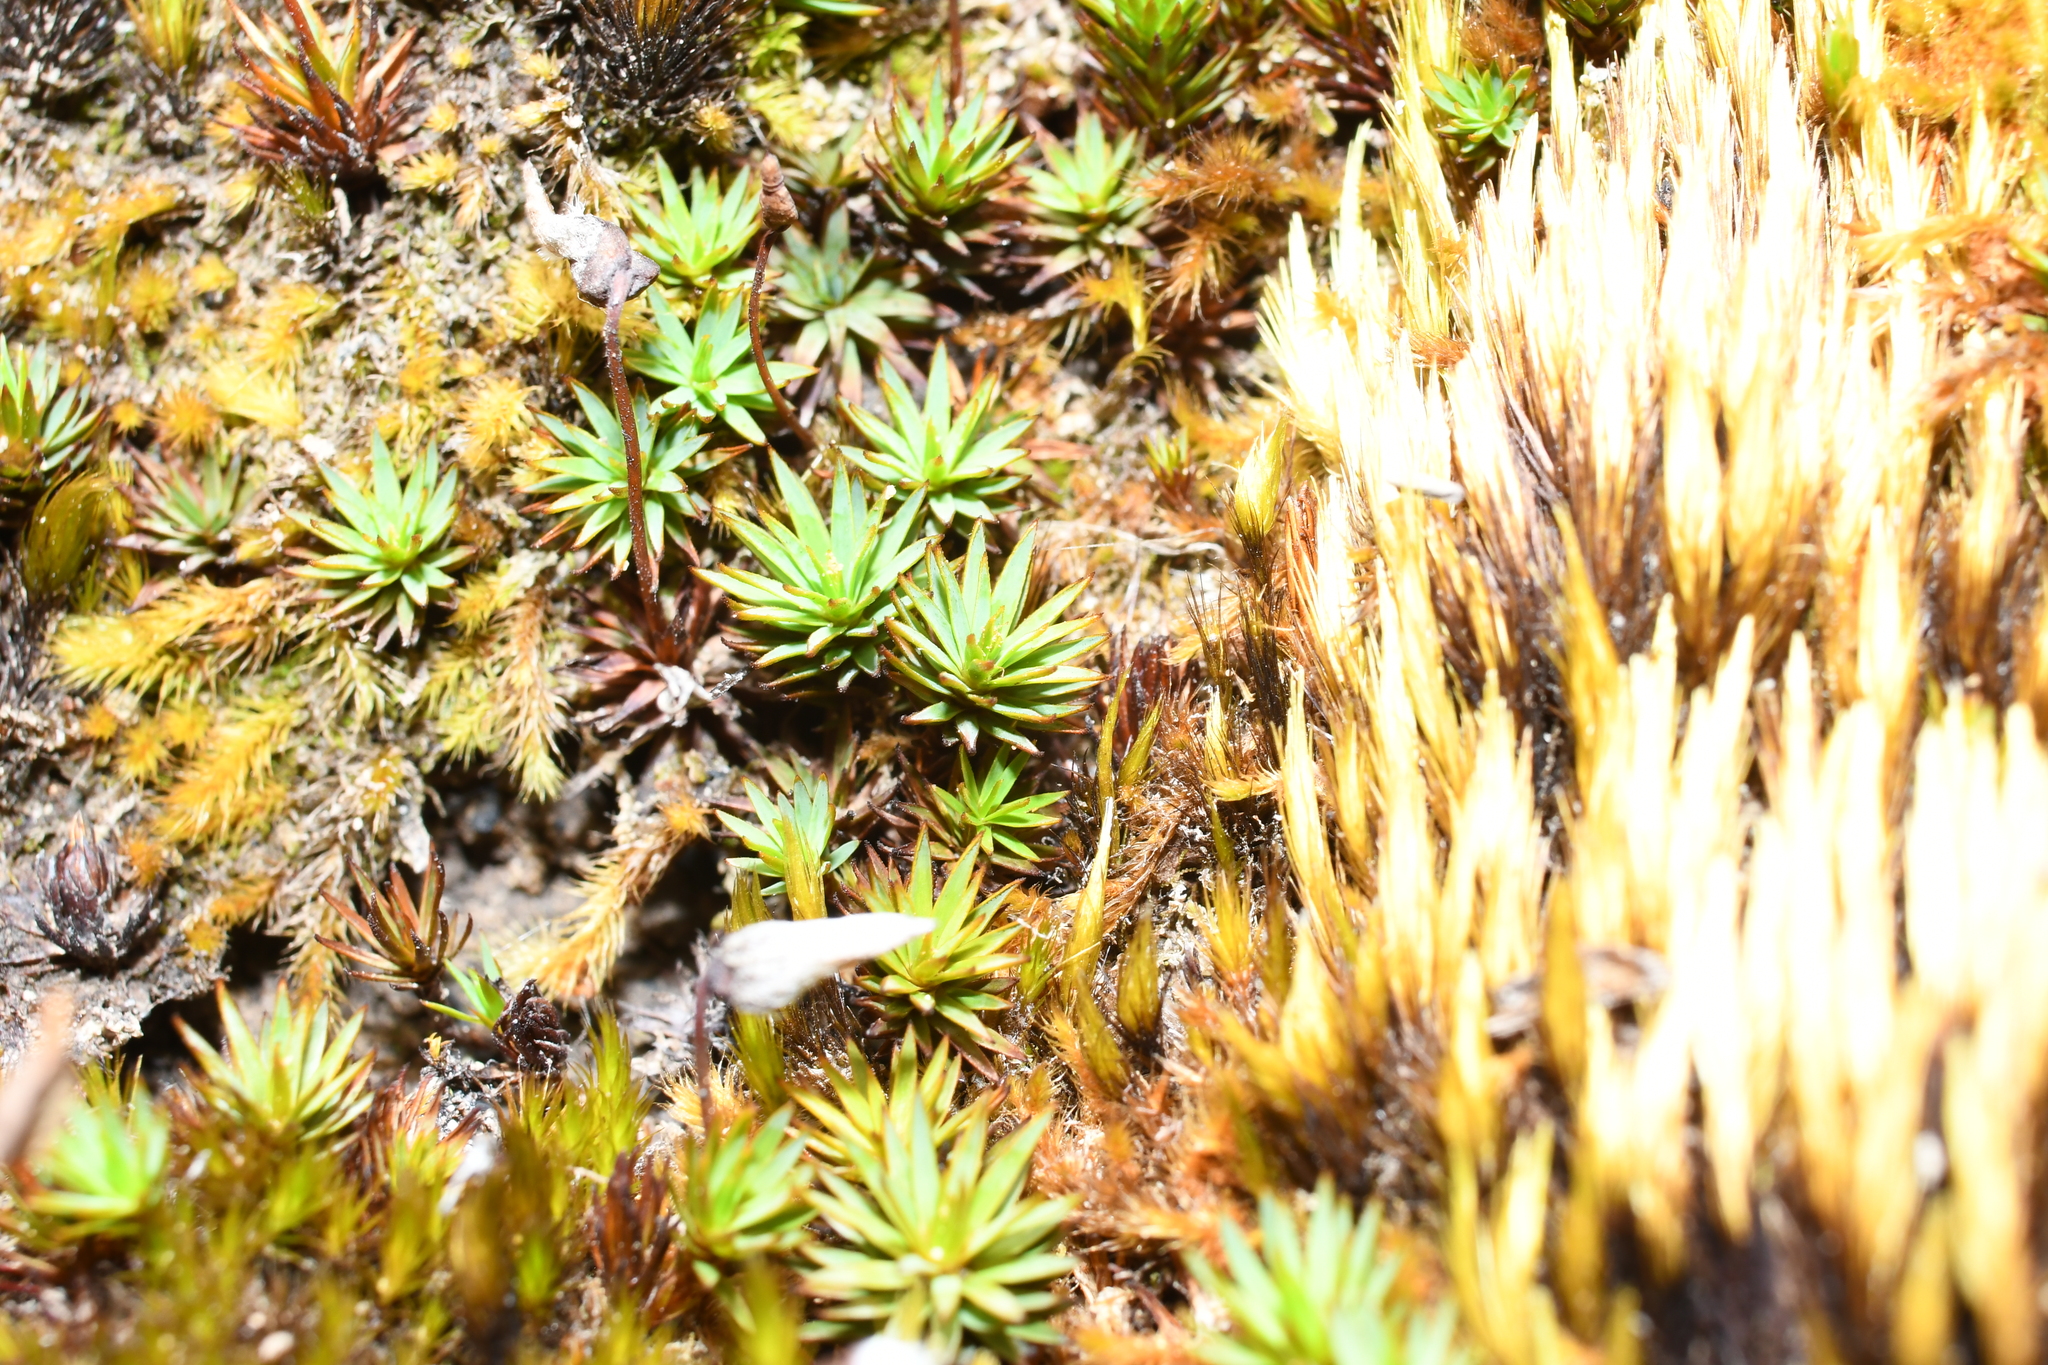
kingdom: Plantae
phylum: Bryophyta
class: Polytrichopsida
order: Polytrichales
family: Polytrichaceae
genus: Dawsonia
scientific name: Dawsonia longiseta
